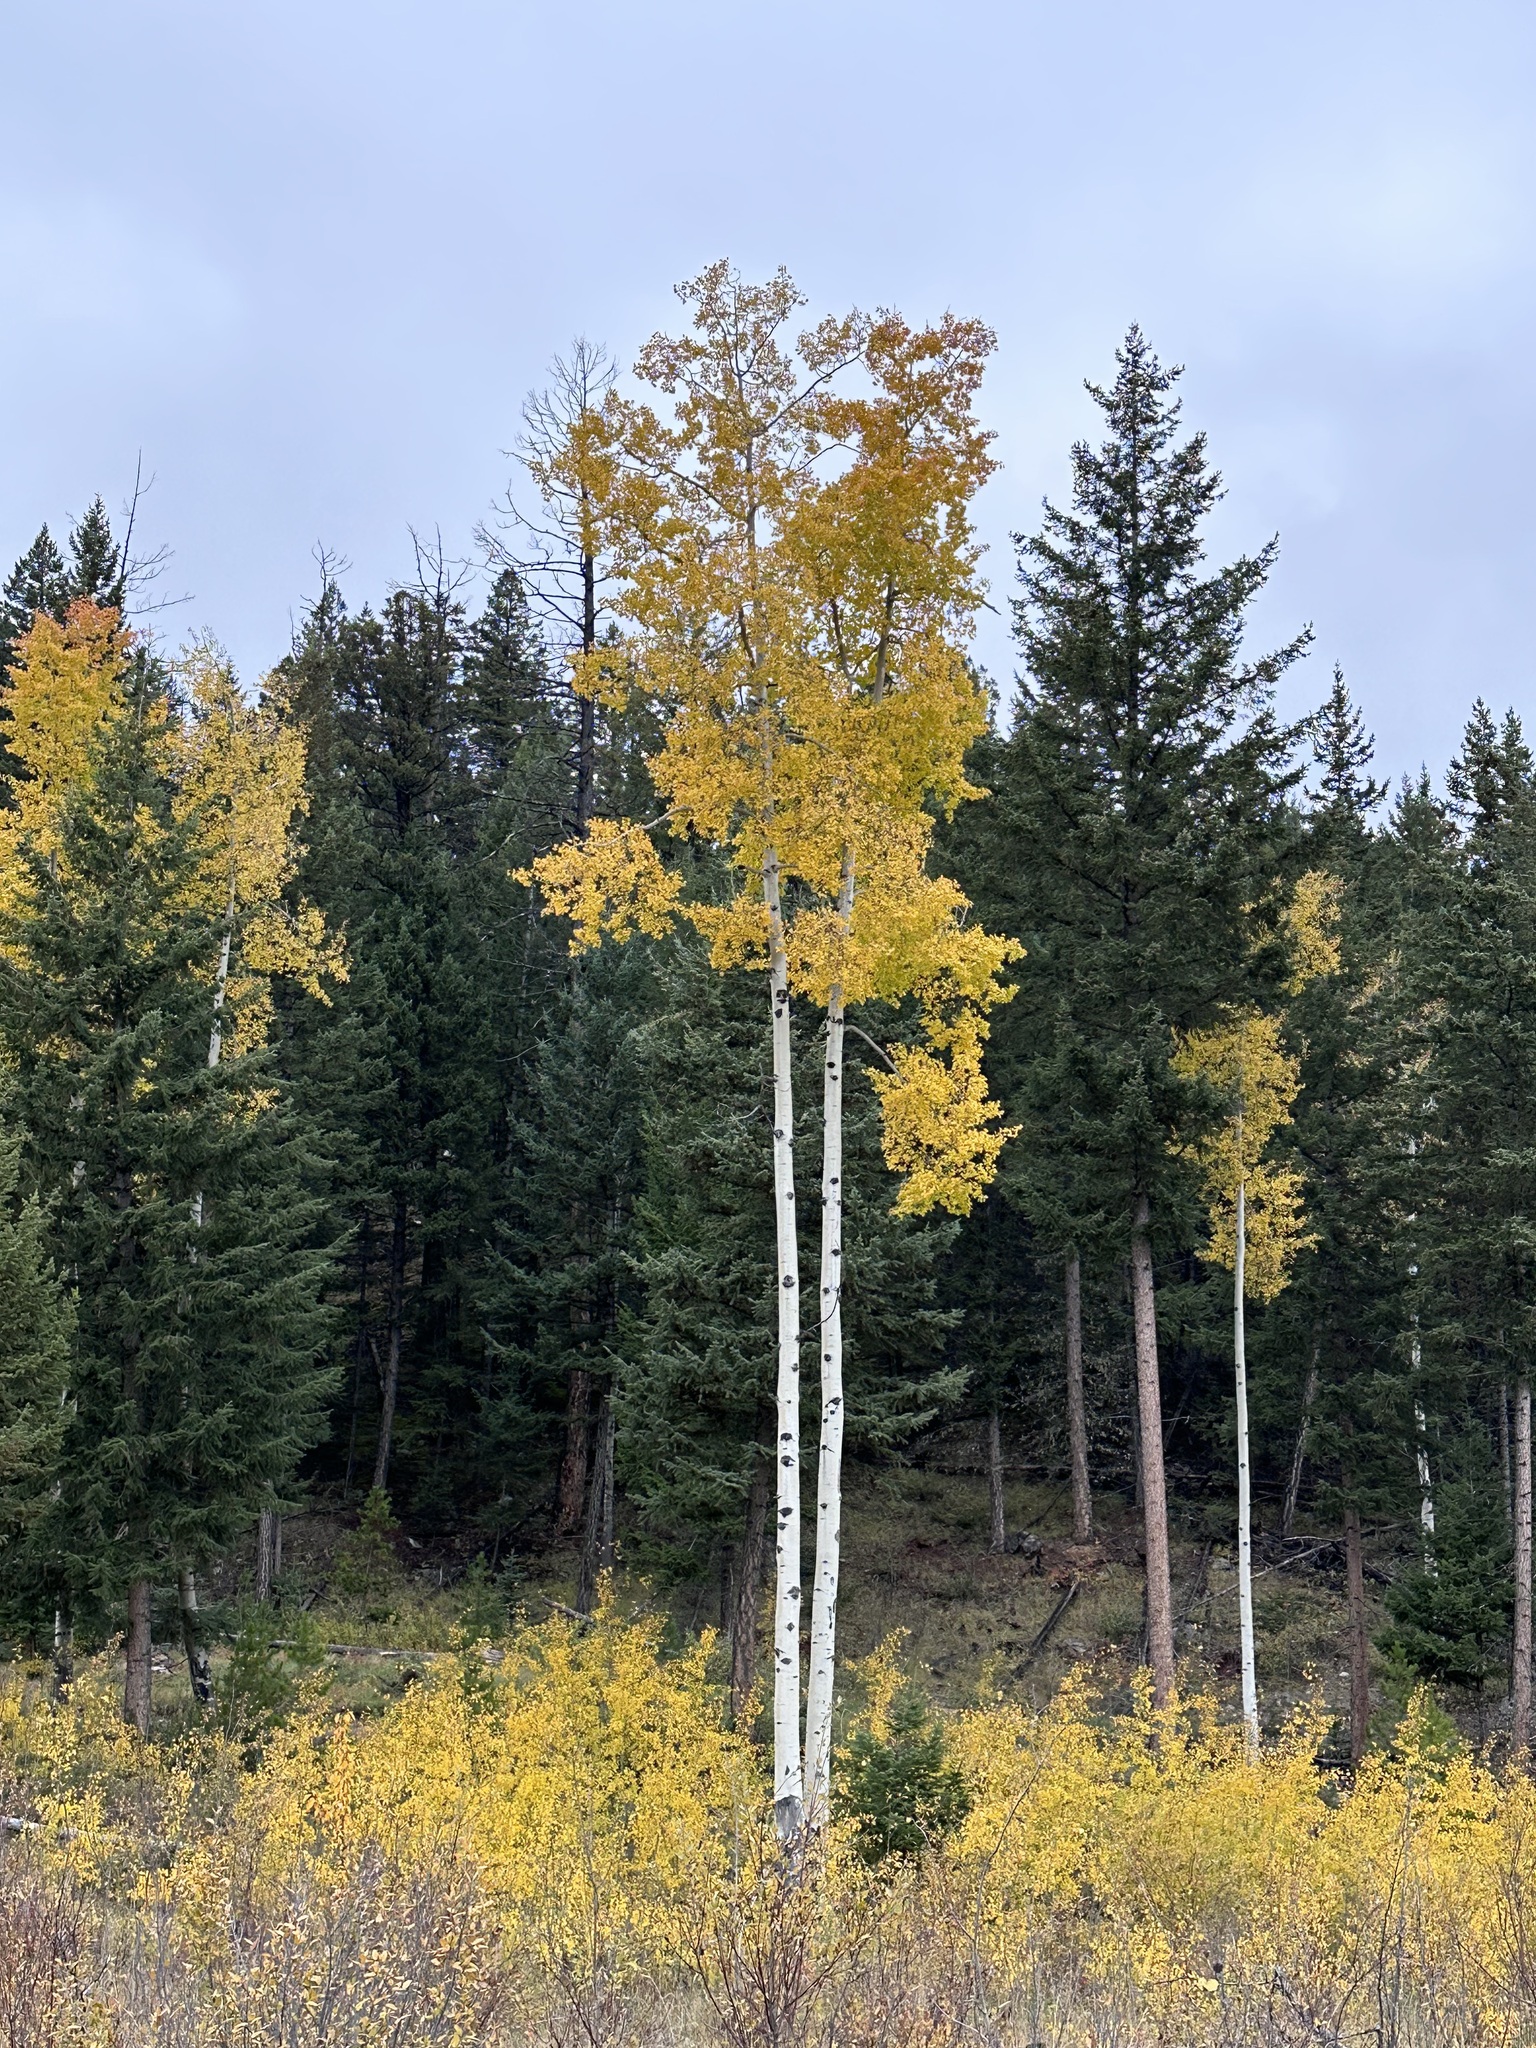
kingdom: Plantae
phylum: Tracheophyta
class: Magnoliopsida
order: Malpighiales
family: Salicaceae
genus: Populus
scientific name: Populus tremuloides
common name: Quaking aspen
